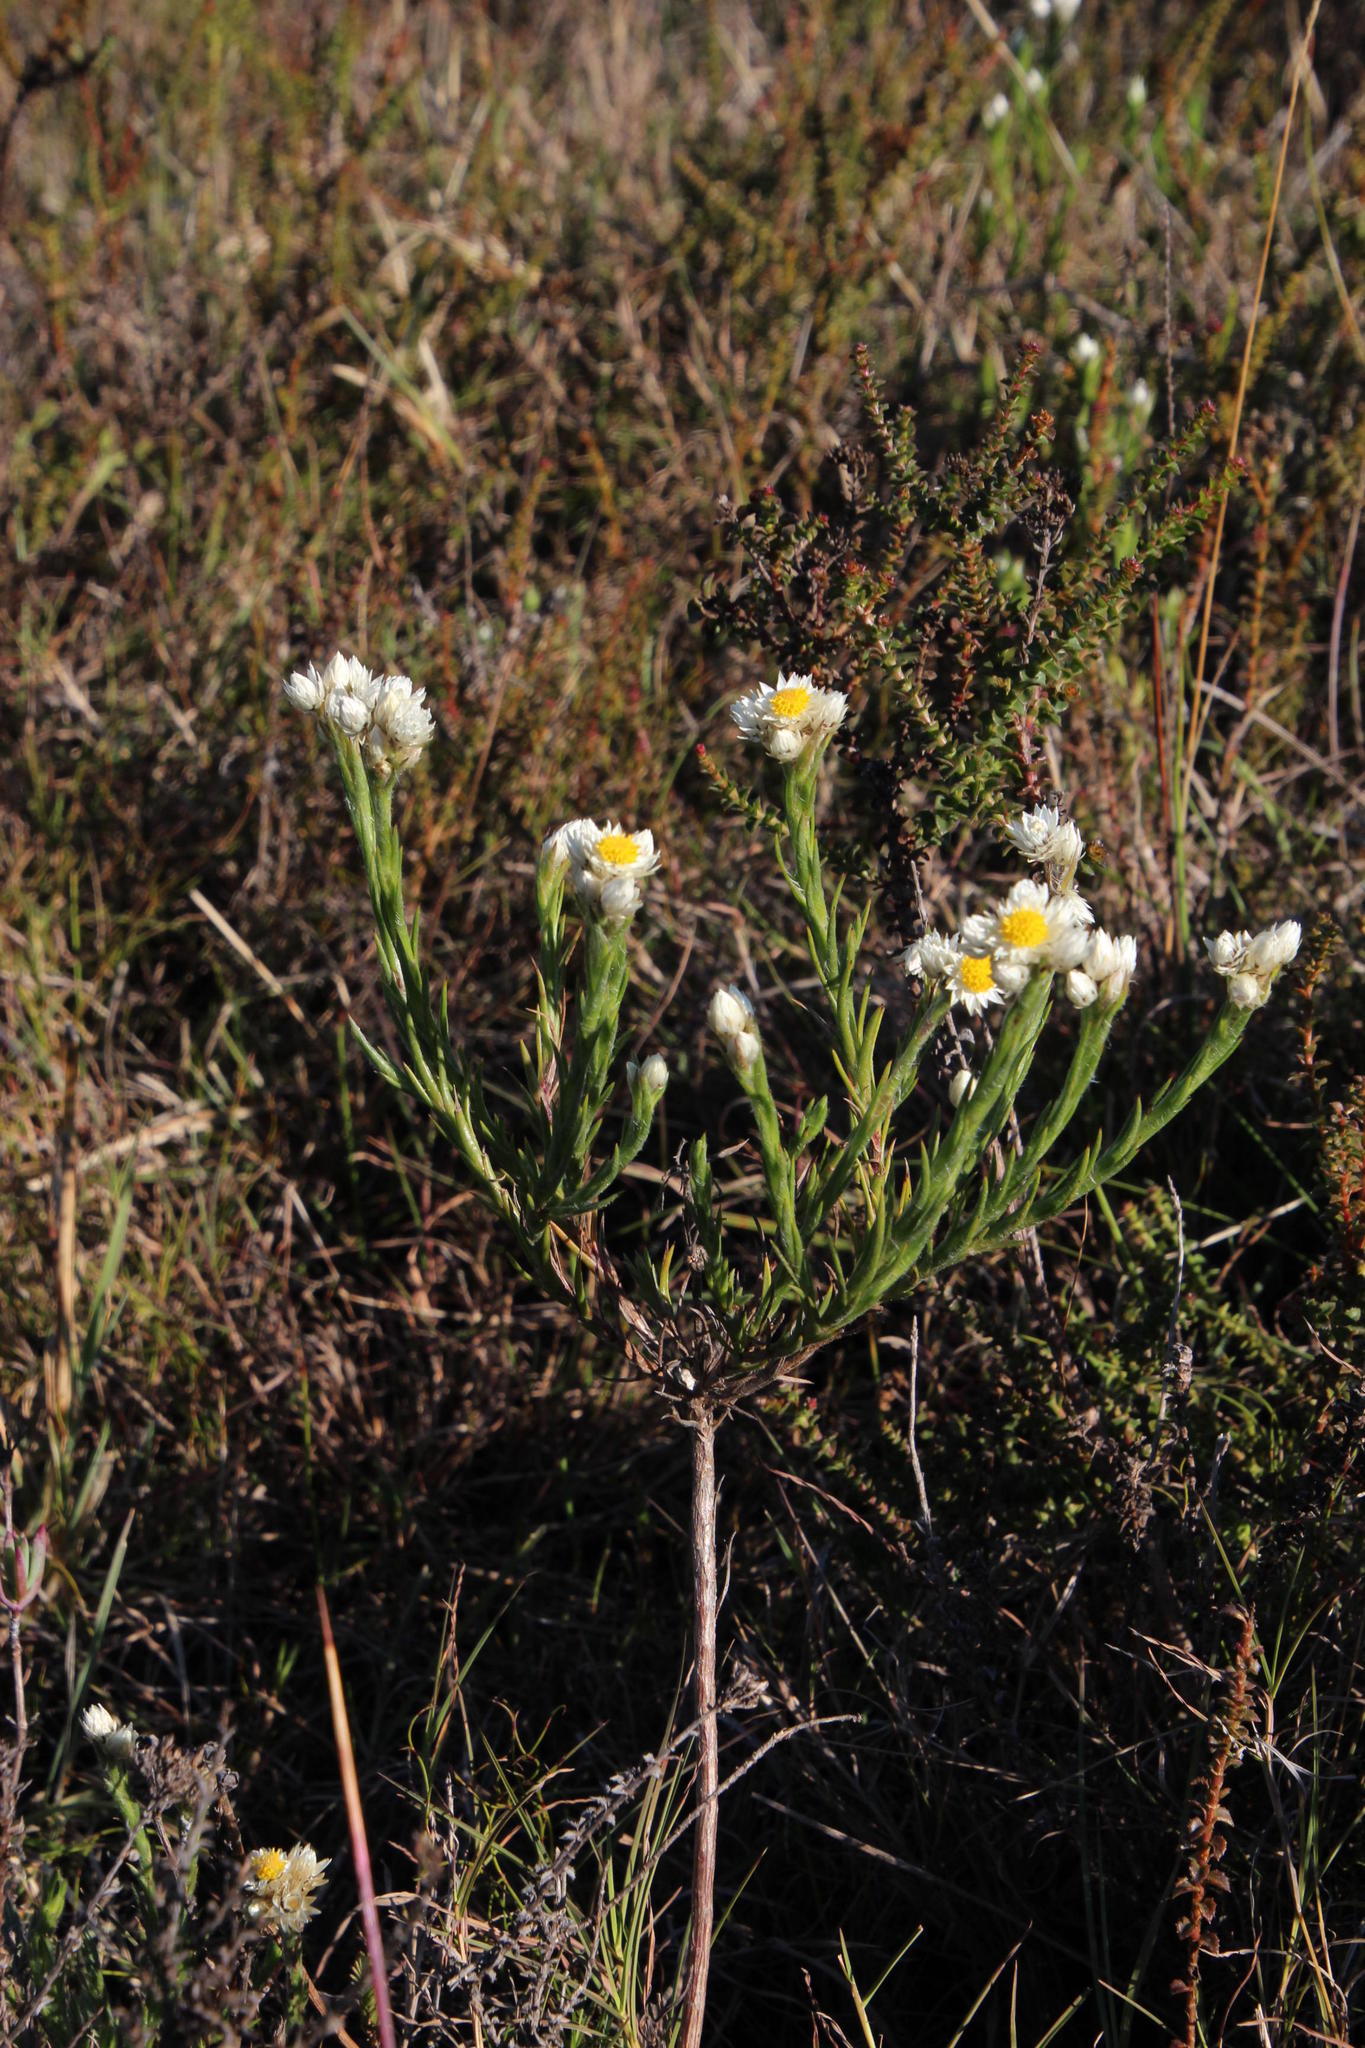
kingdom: Plantae
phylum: Tracheophyta
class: Magnoliopsida
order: Asterales
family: Asteraceae
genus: Achyranthemum
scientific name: Achyranthemum striatum
